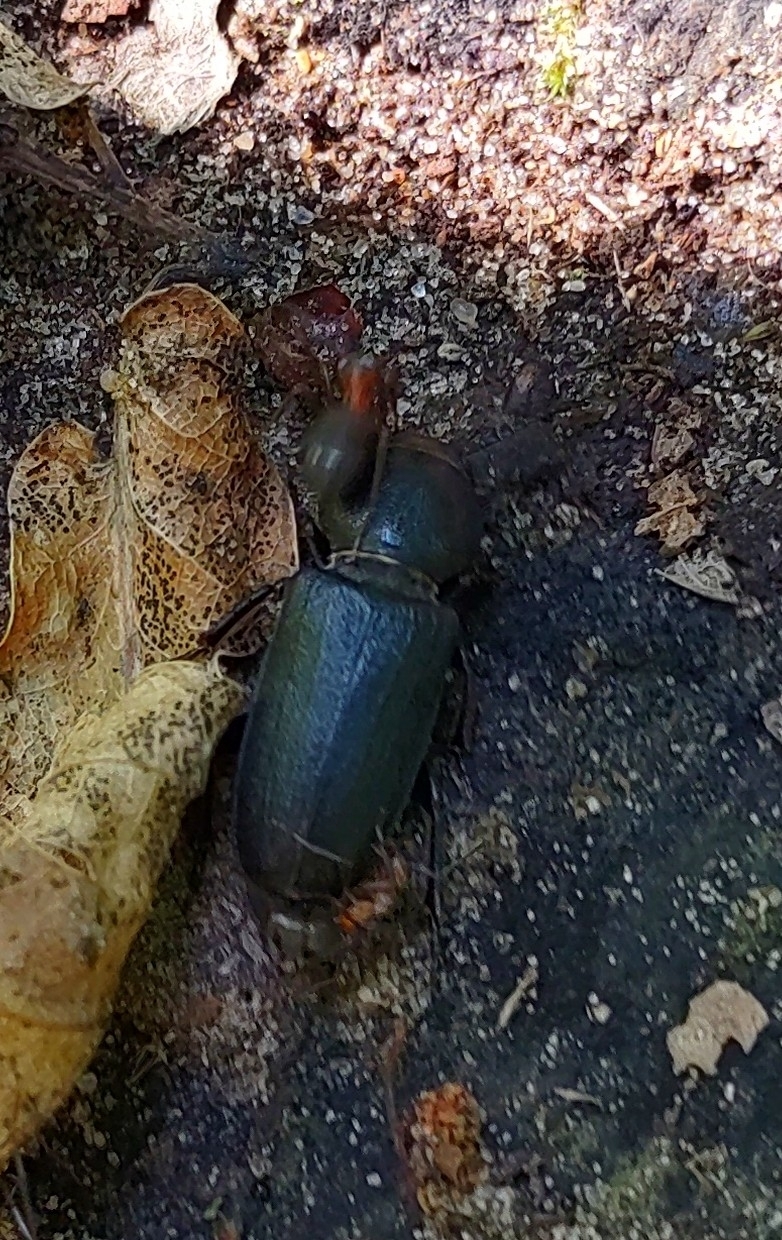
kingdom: Animalia
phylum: Arthropoda
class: Insecta
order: Coleoptera
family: Cerambycidae
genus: Spondylis
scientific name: Spondylis buprestoides
